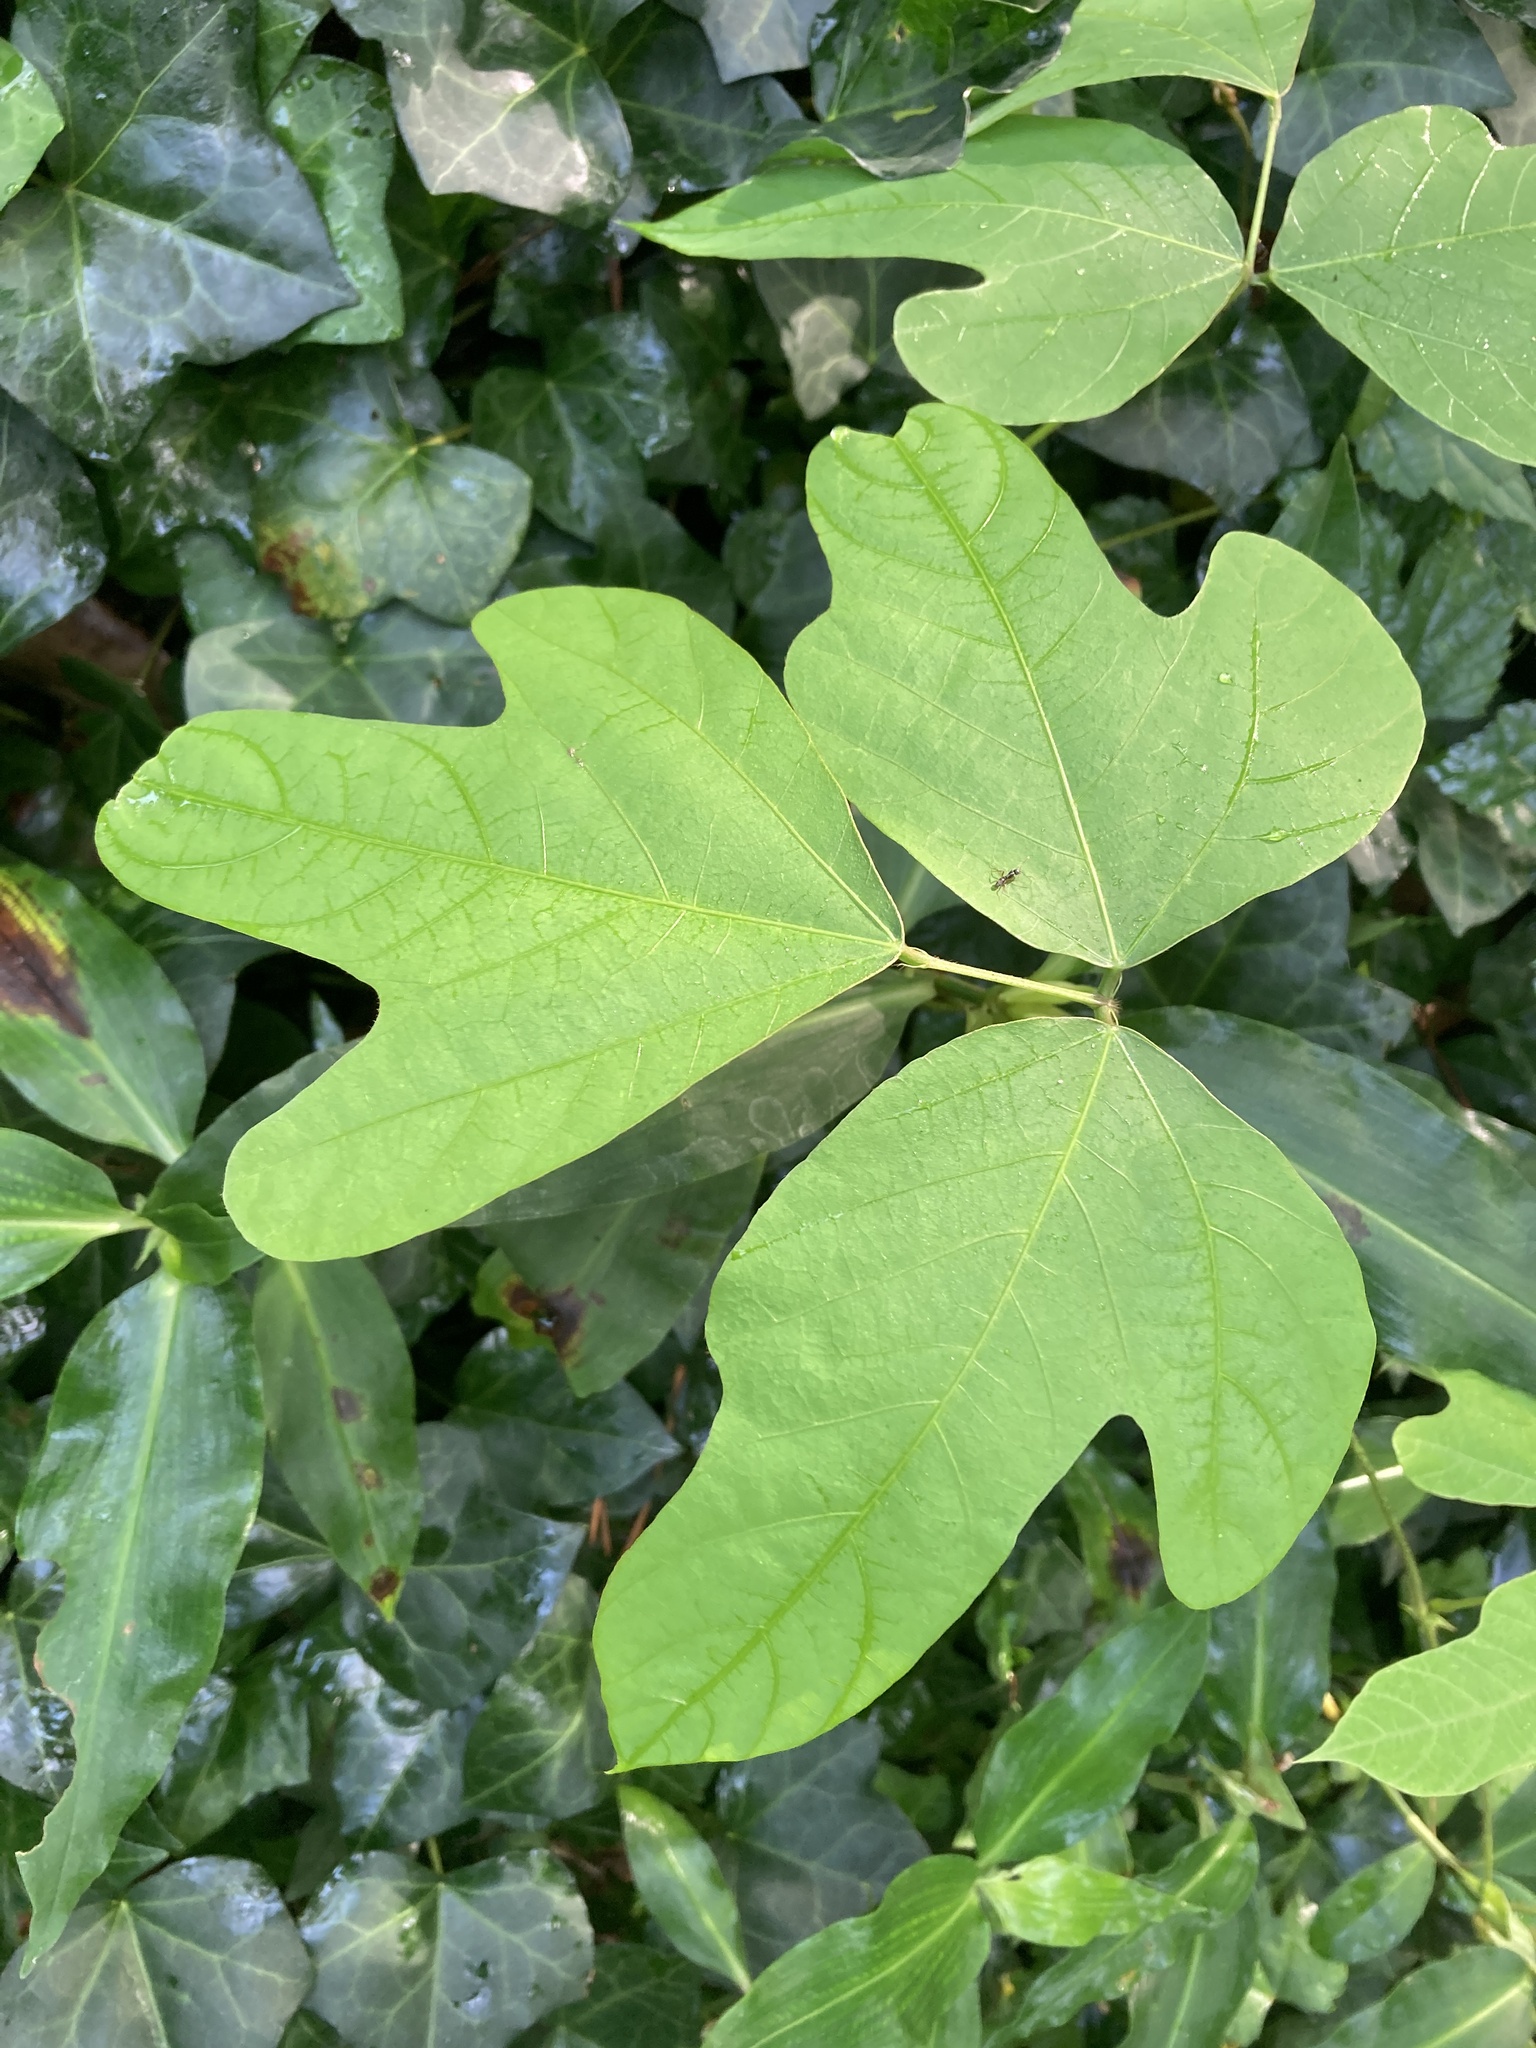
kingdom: Plantae
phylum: Tracheophyta
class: Magnoliopsida
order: Fabales
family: Fabaceae
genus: Pueraria
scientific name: Pueraria montana
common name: Kudzu
